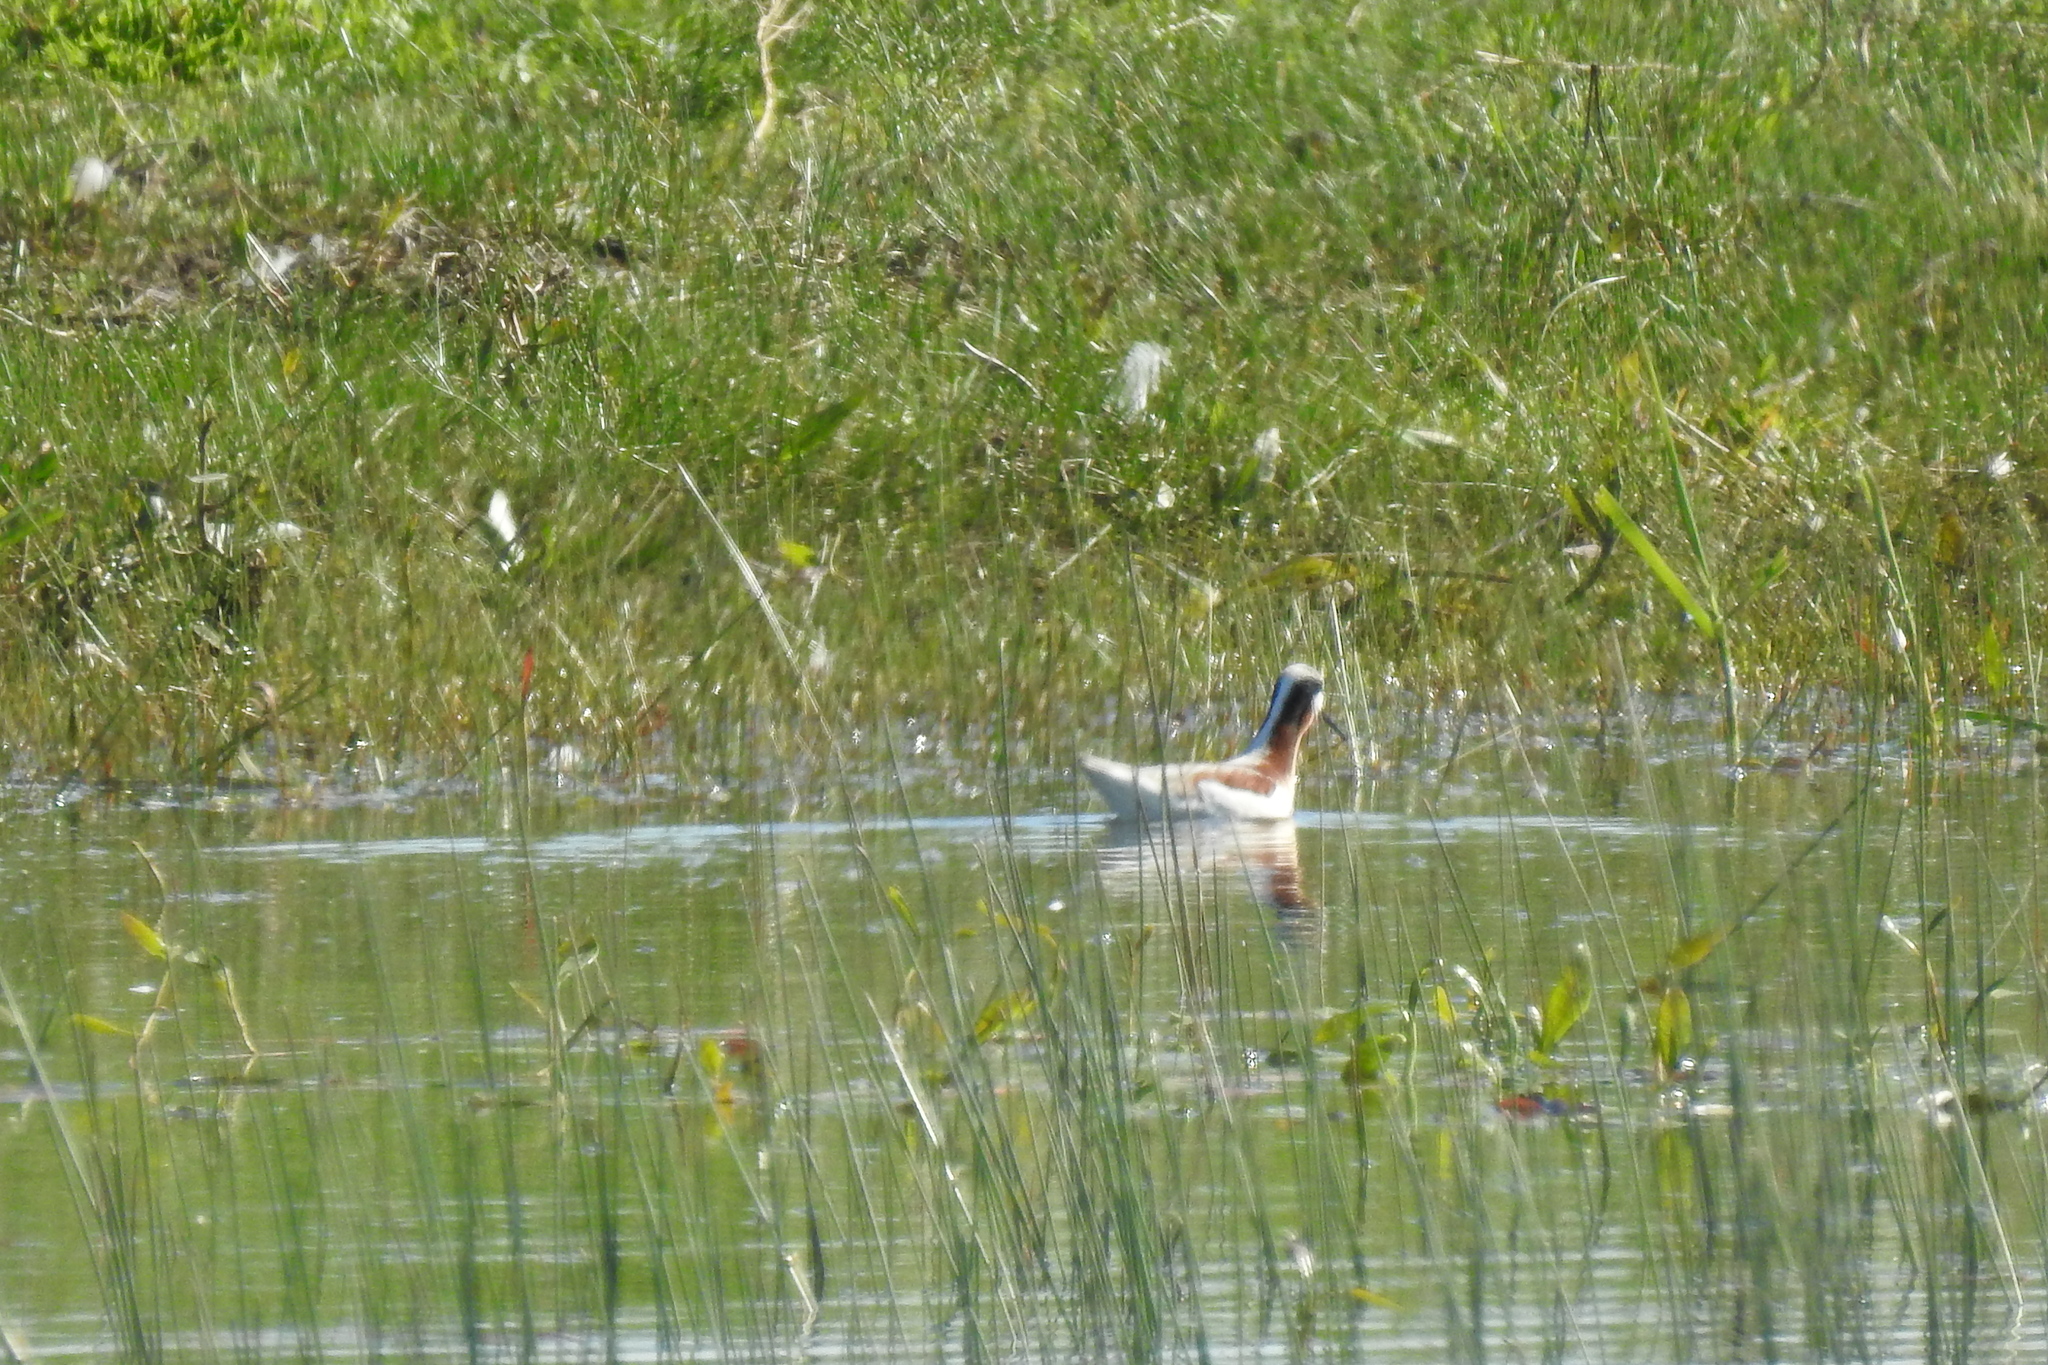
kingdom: Animalia
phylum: Chordata
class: Aves
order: Charadriiformes
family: Scolopacidae
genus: Phalaropus
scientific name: Phalaropus tricolor
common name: Wilson's phalarope
